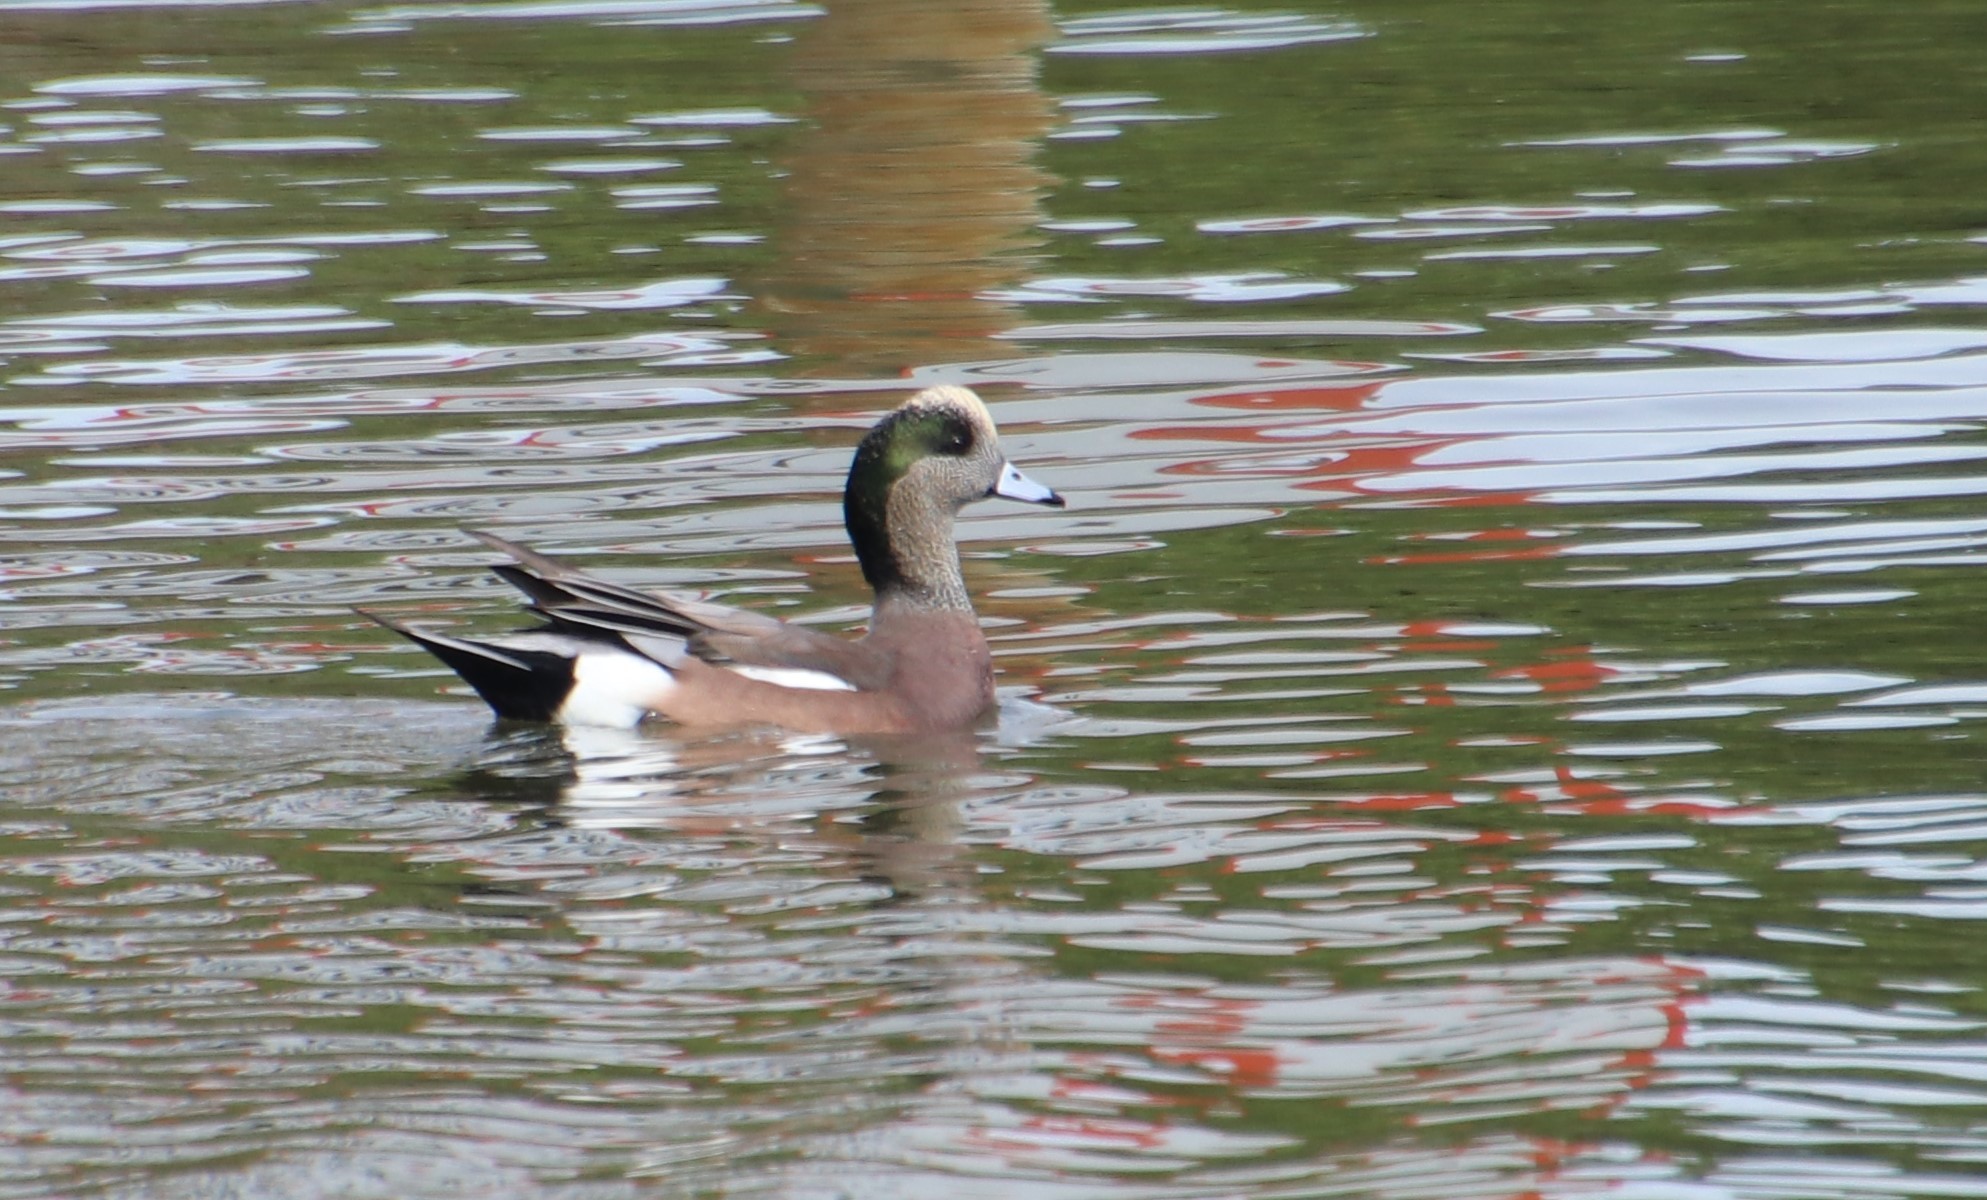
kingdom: Animalia
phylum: Chordata
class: Aves
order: Anseriformes
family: Anatidae
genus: Mareca
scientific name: Mareca americana
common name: American wigeon
